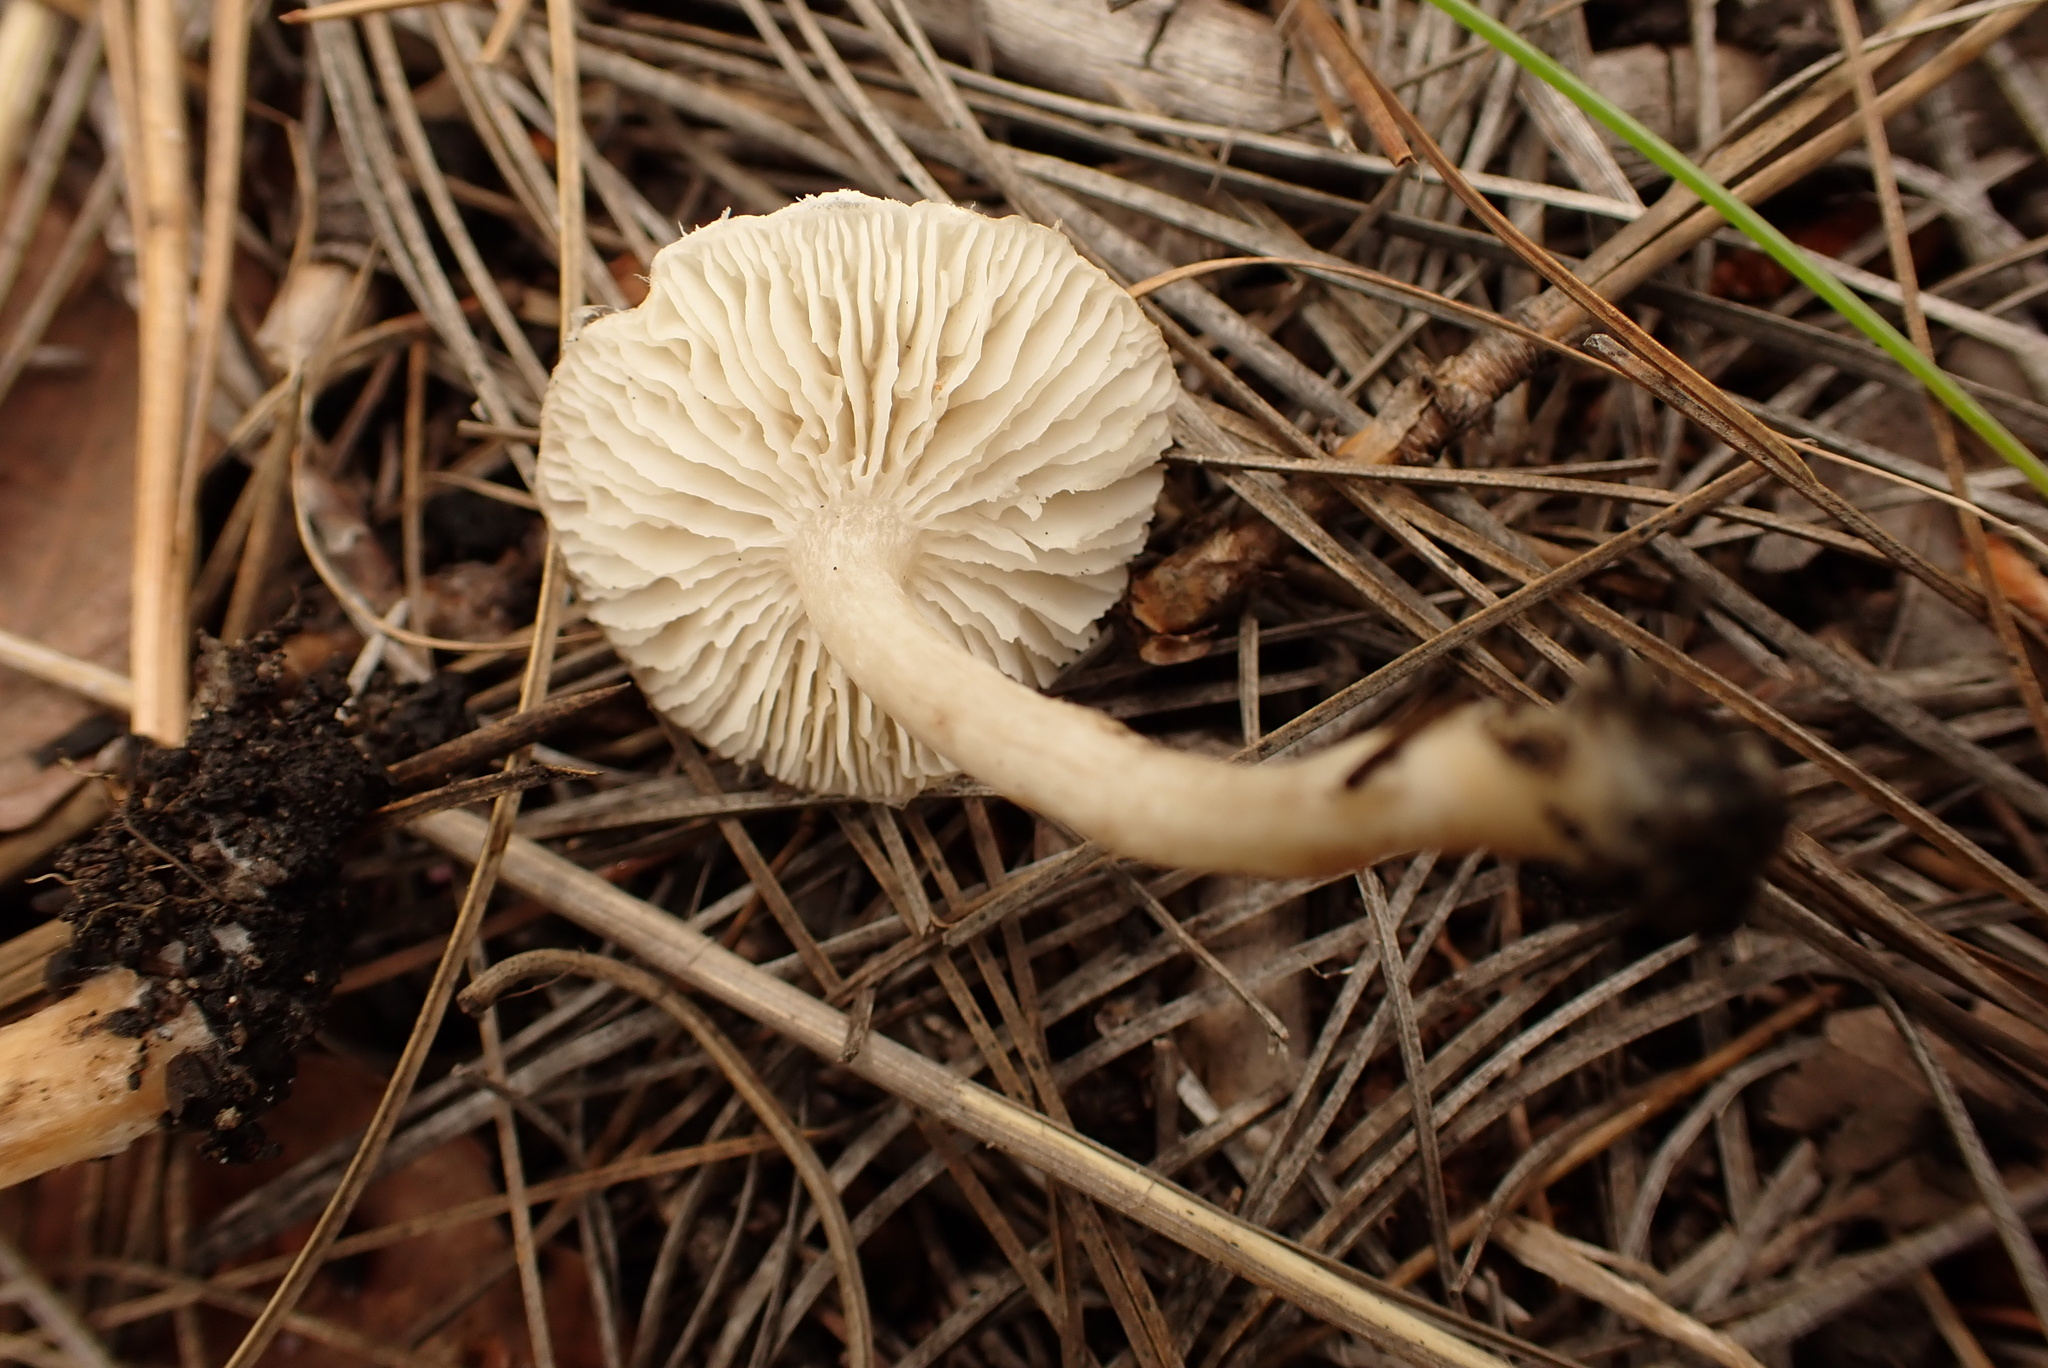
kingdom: Fungi
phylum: Basidiomycota
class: Agaricomycetes
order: Agaricales
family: Tricholomataceae
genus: Tricholoma
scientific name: Tricholoma triste
